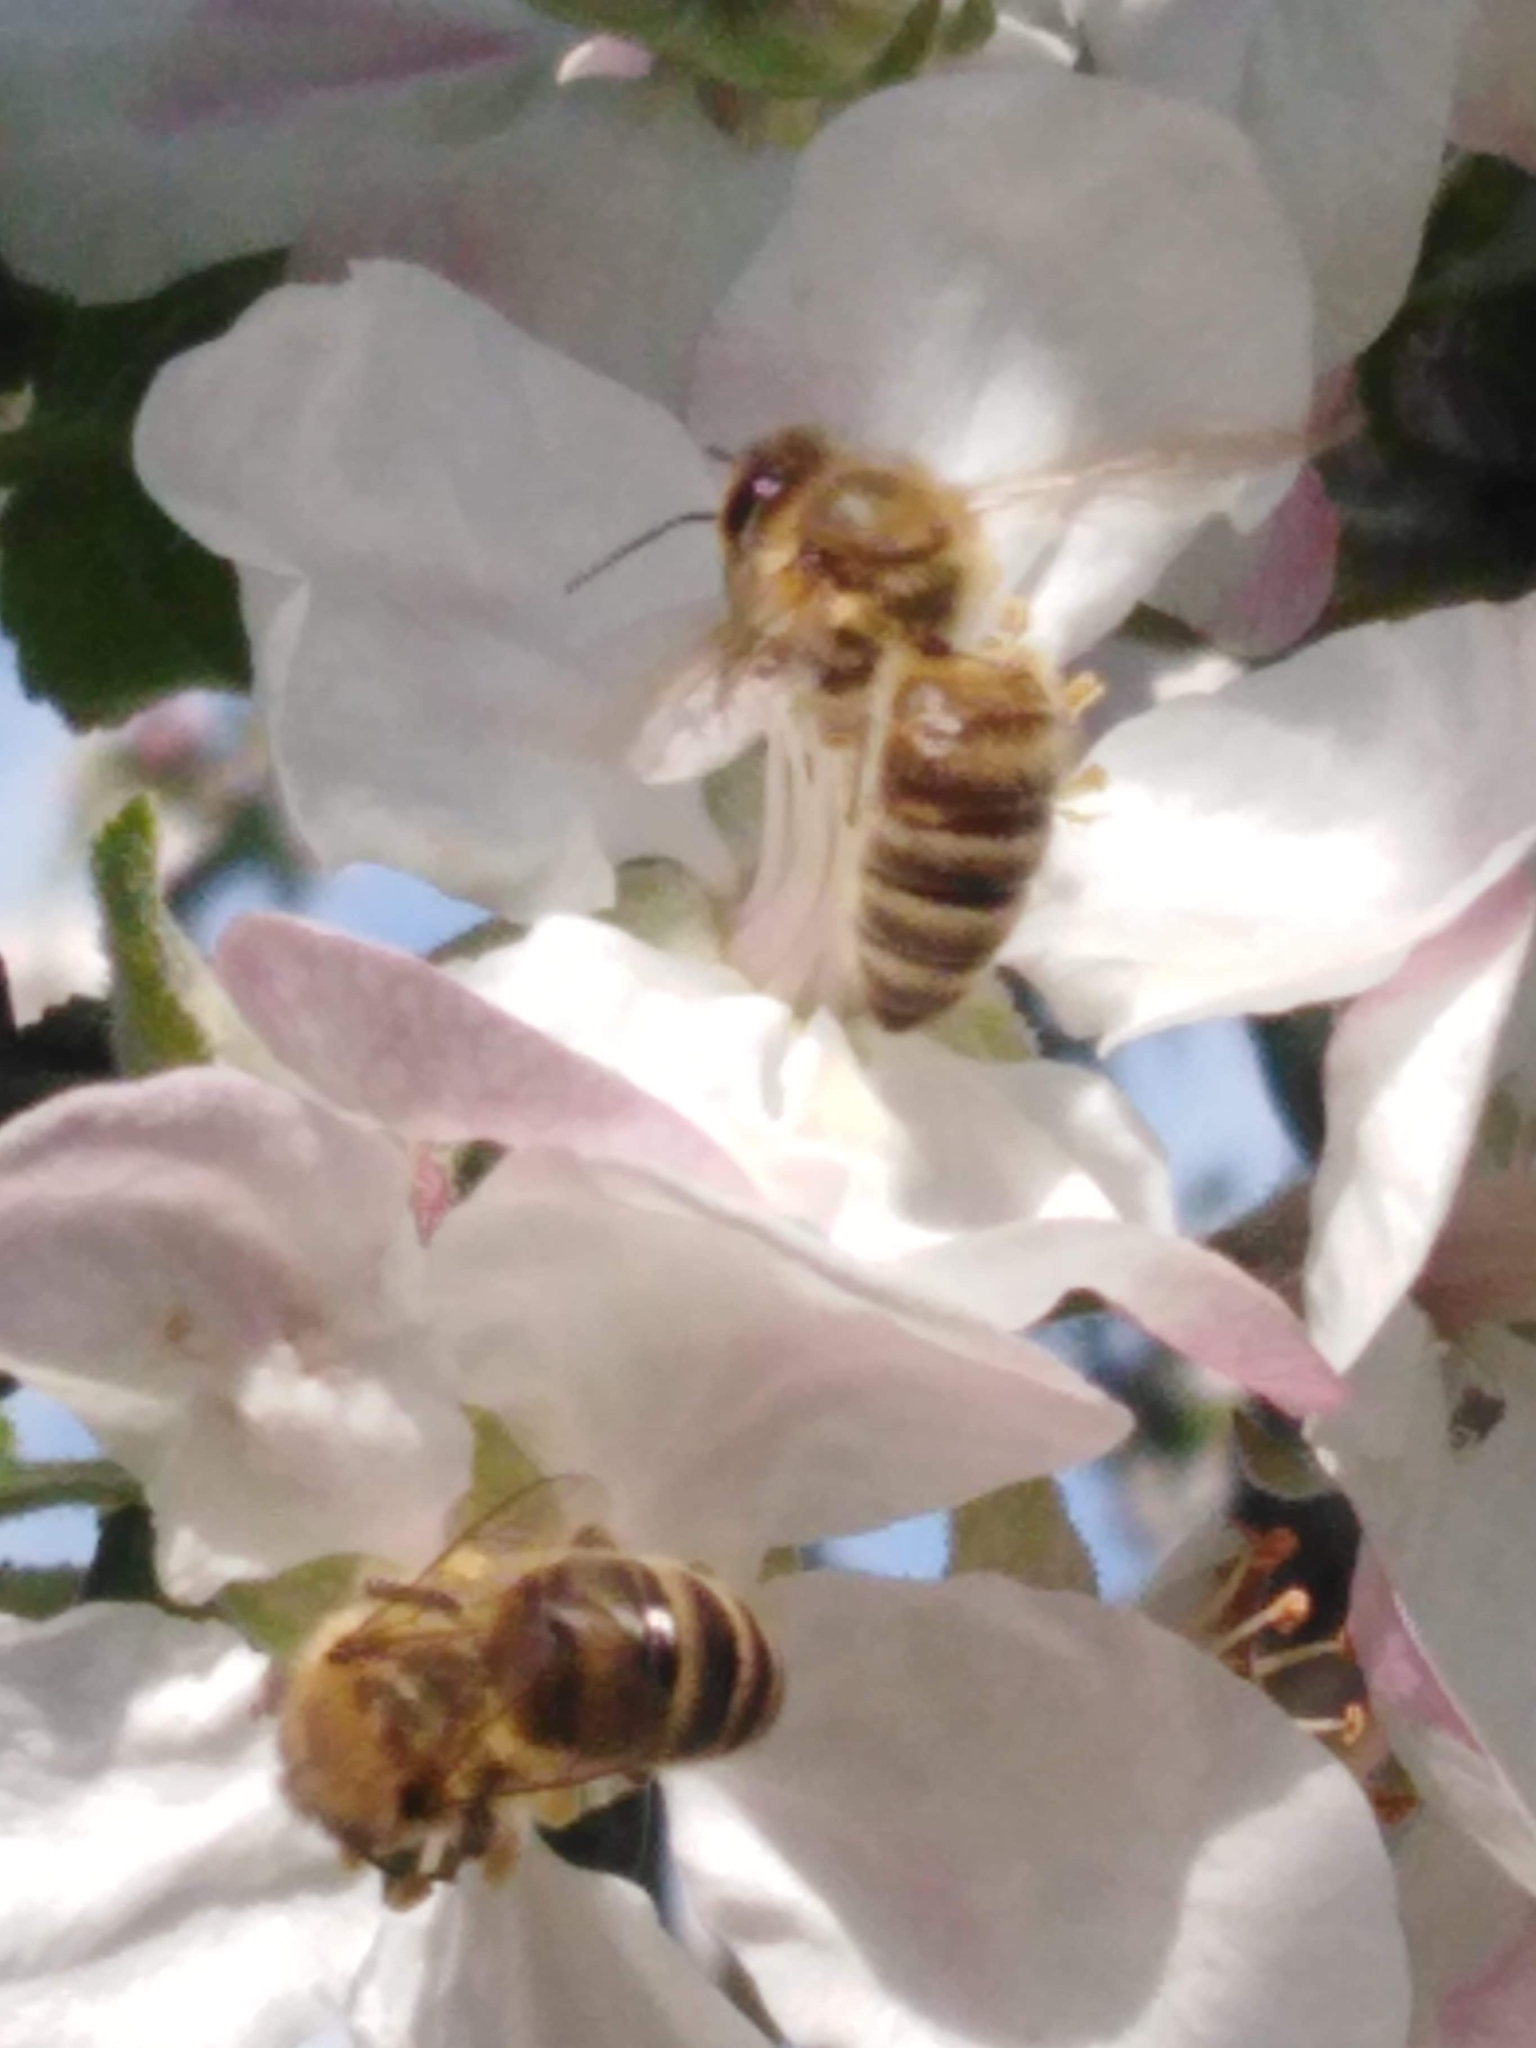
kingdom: Animalia
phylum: Arthropoda
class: Insecta
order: Hymenoptera
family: Apidae
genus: Apis
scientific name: Apis mellifera
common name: Honey bee
